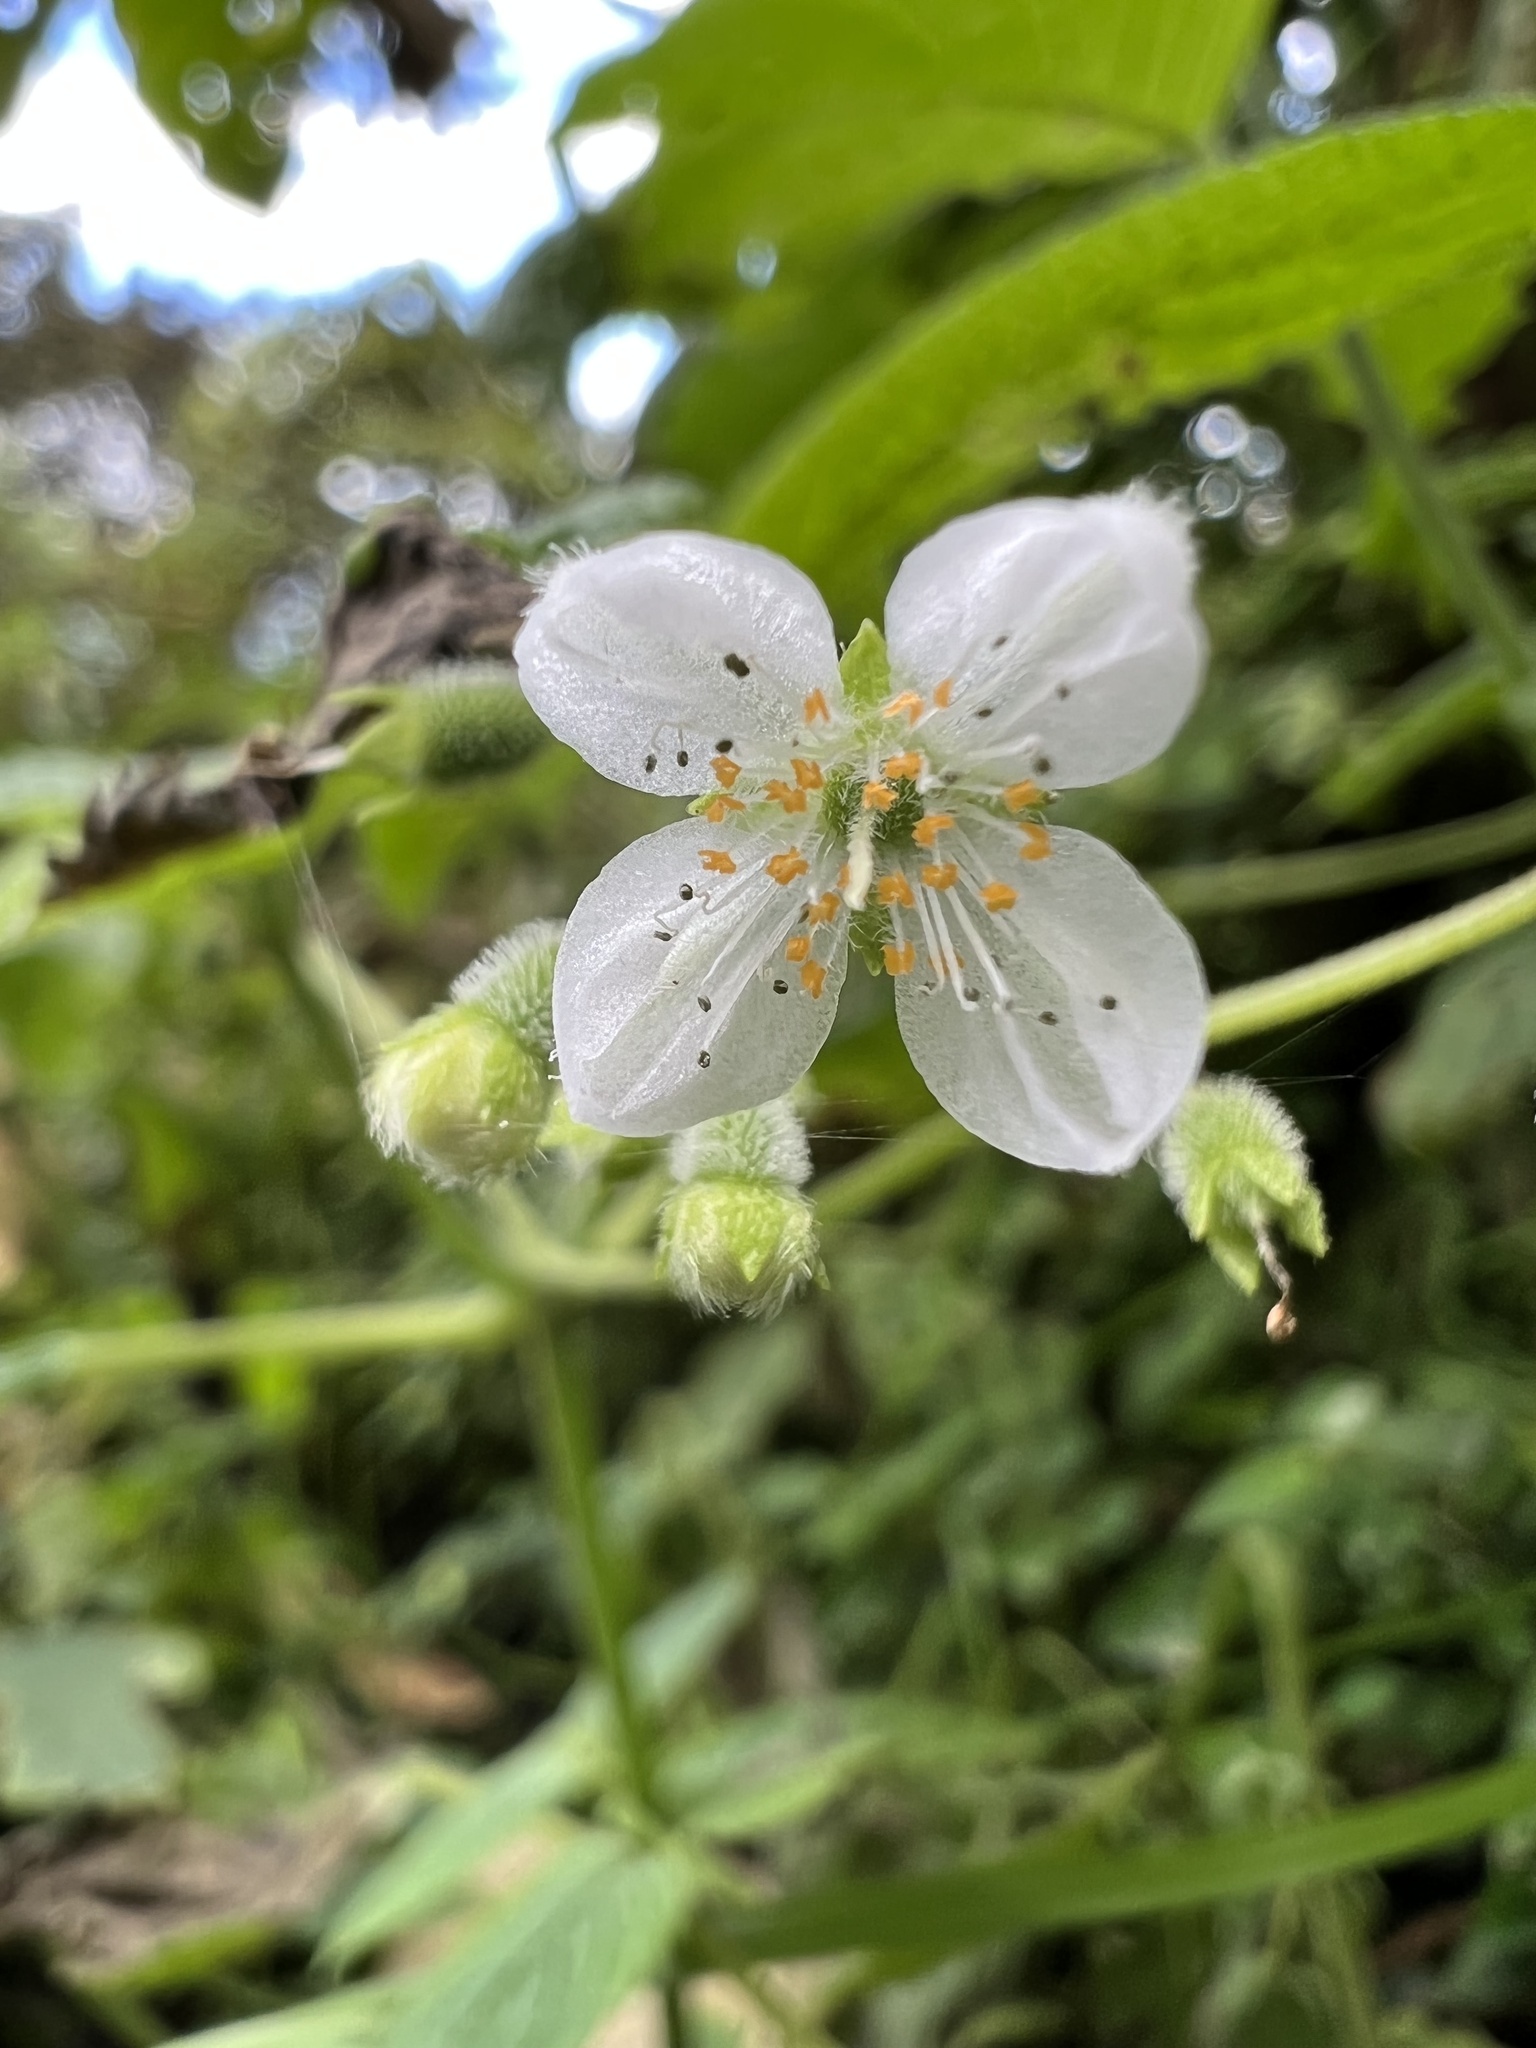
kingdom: Plantae
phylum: Tracheophyta
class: Magnoliopsida
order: Cornales
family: Loasaceae
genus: Klaprothia
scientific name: Klaprothia mentzelioides
